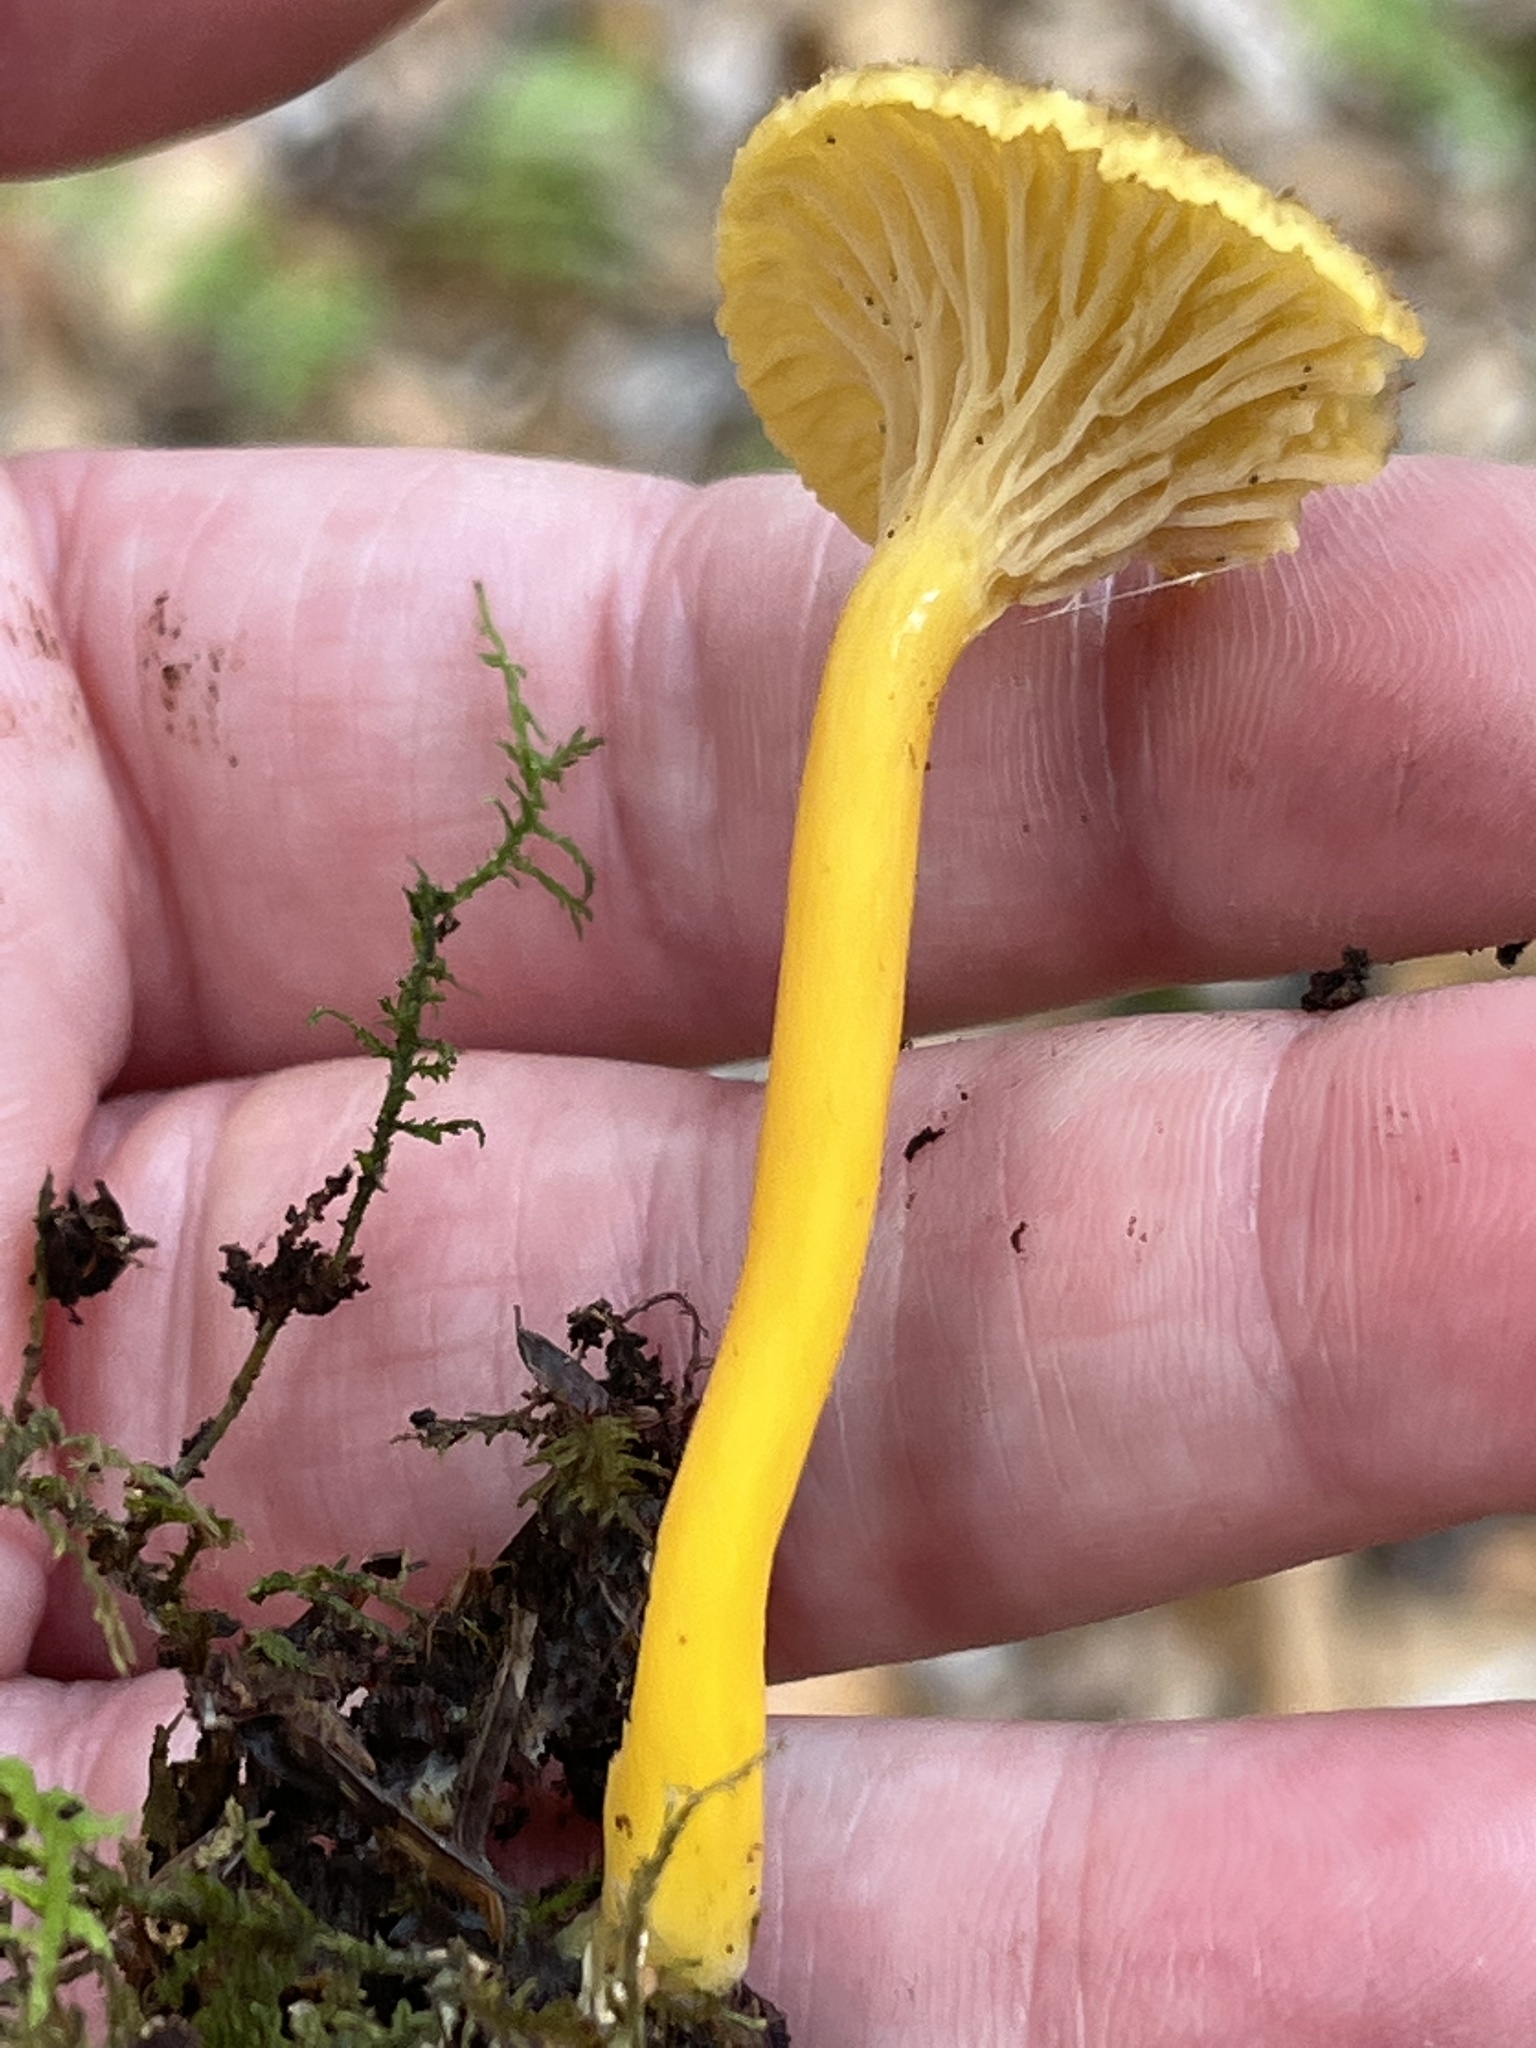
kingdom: Fungi
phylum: Basidiomycota
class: Agaricomycetes
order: Cantharellales
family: Hydnaceae
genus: Craterellus
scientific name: Craterellus tubaeformis
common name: Yellowfoot
